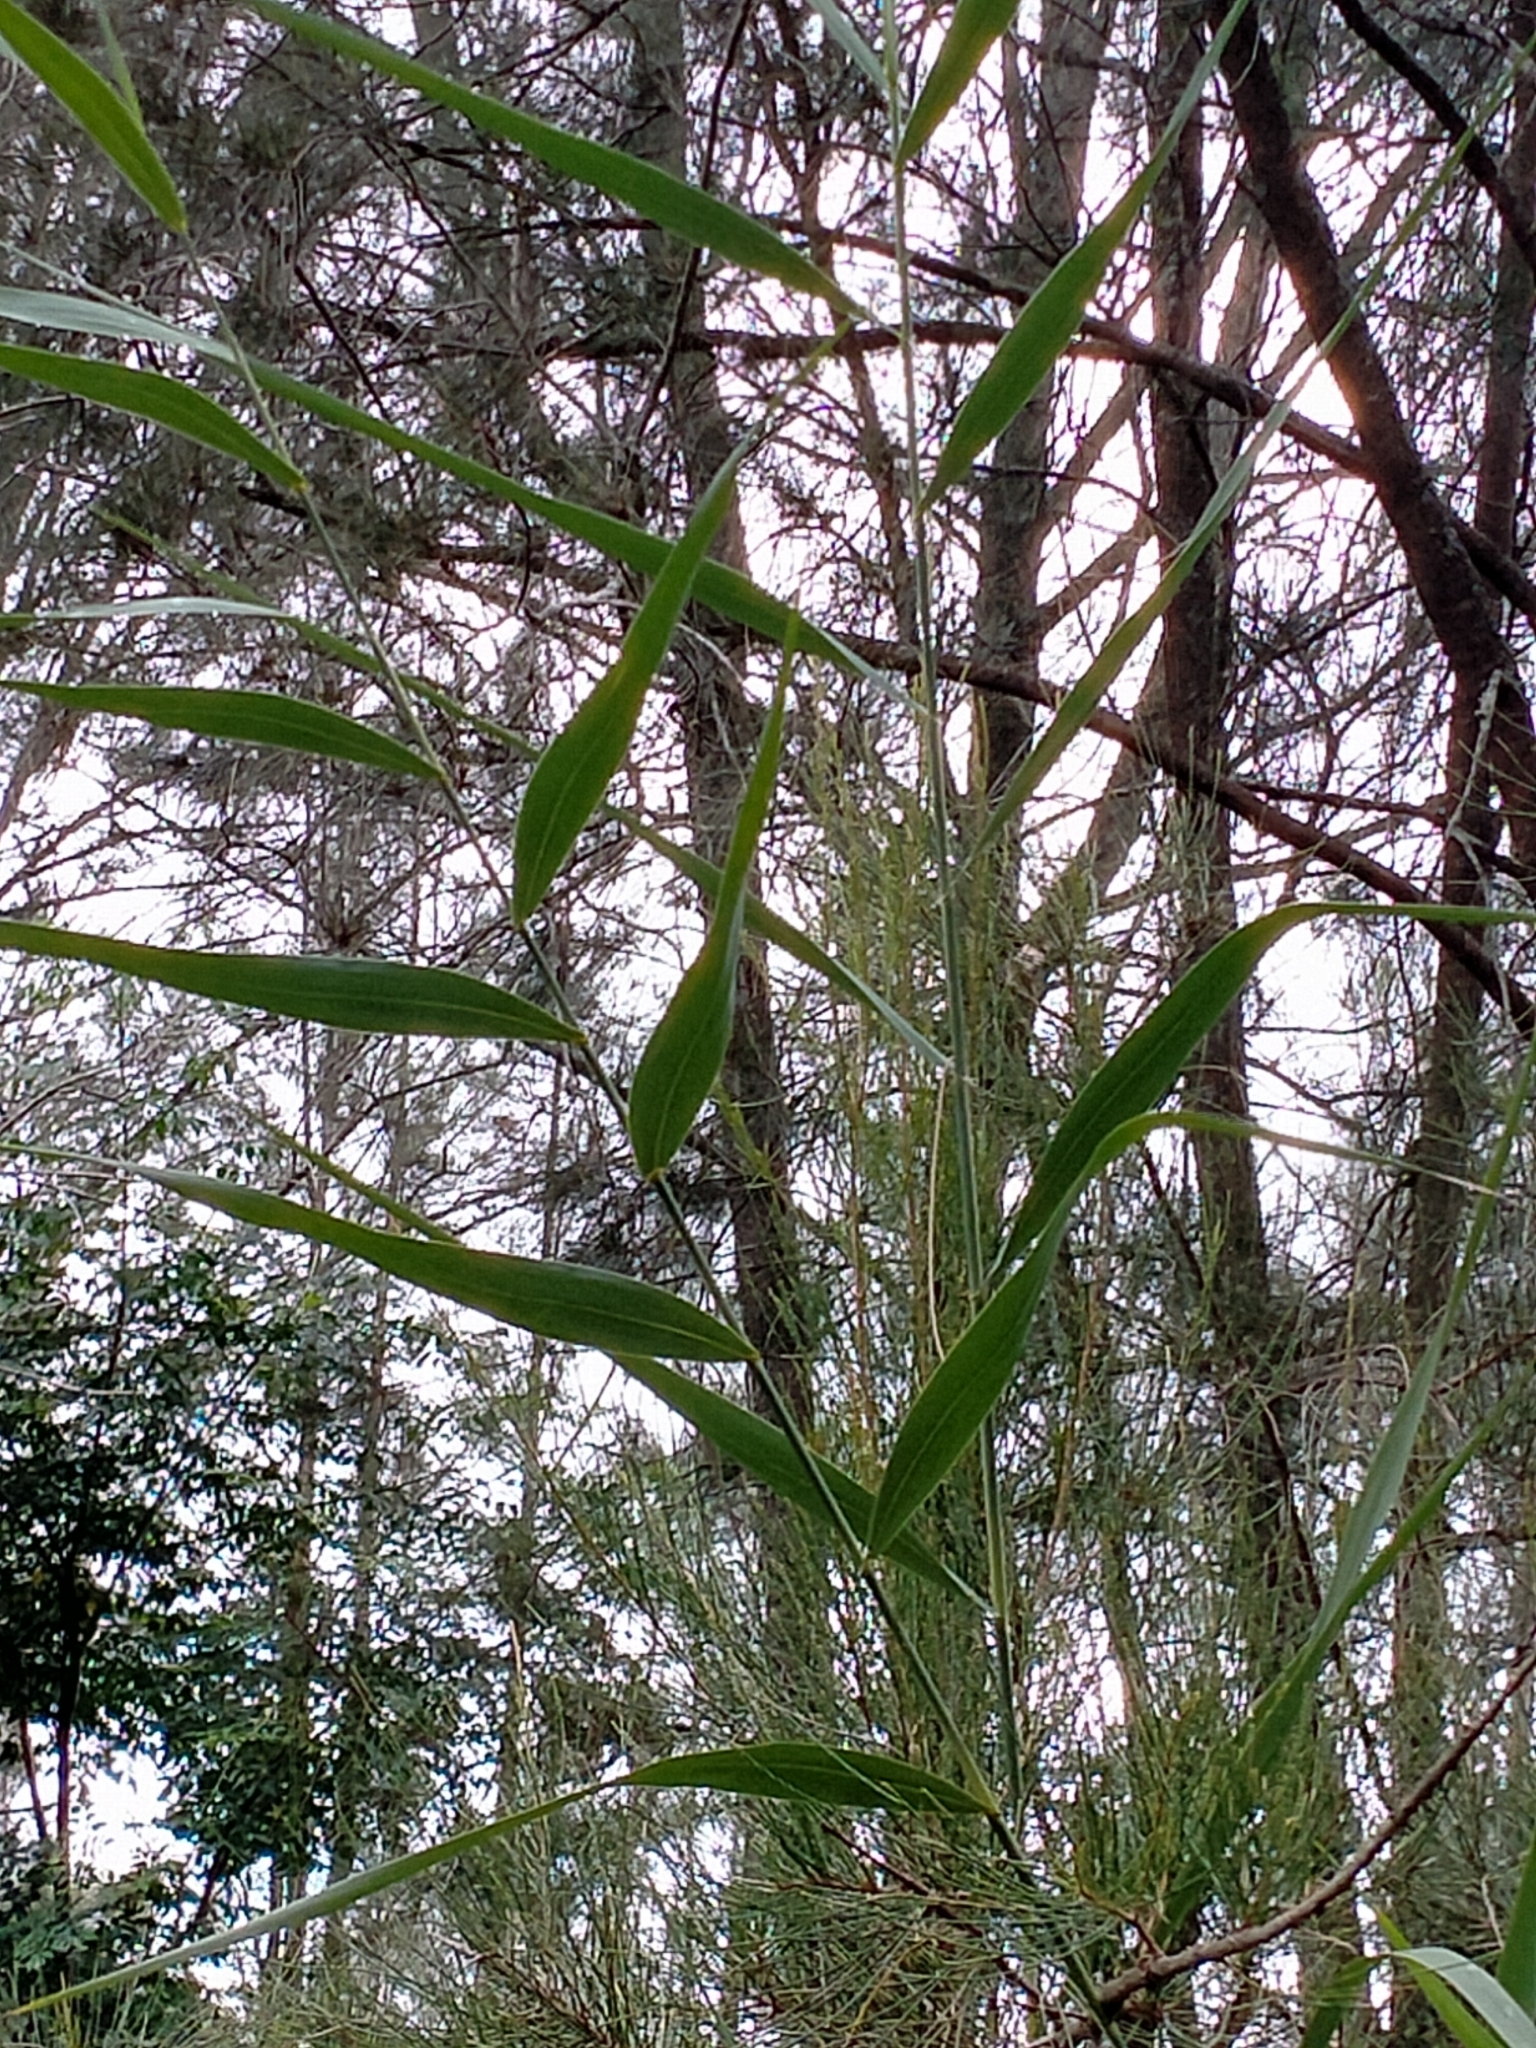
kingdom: Plantae
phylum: Tracheophyta
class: Liliopsida
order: Poales
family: Poaceae
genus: Phragmites
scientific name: Phragmites australis
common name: Common reed
